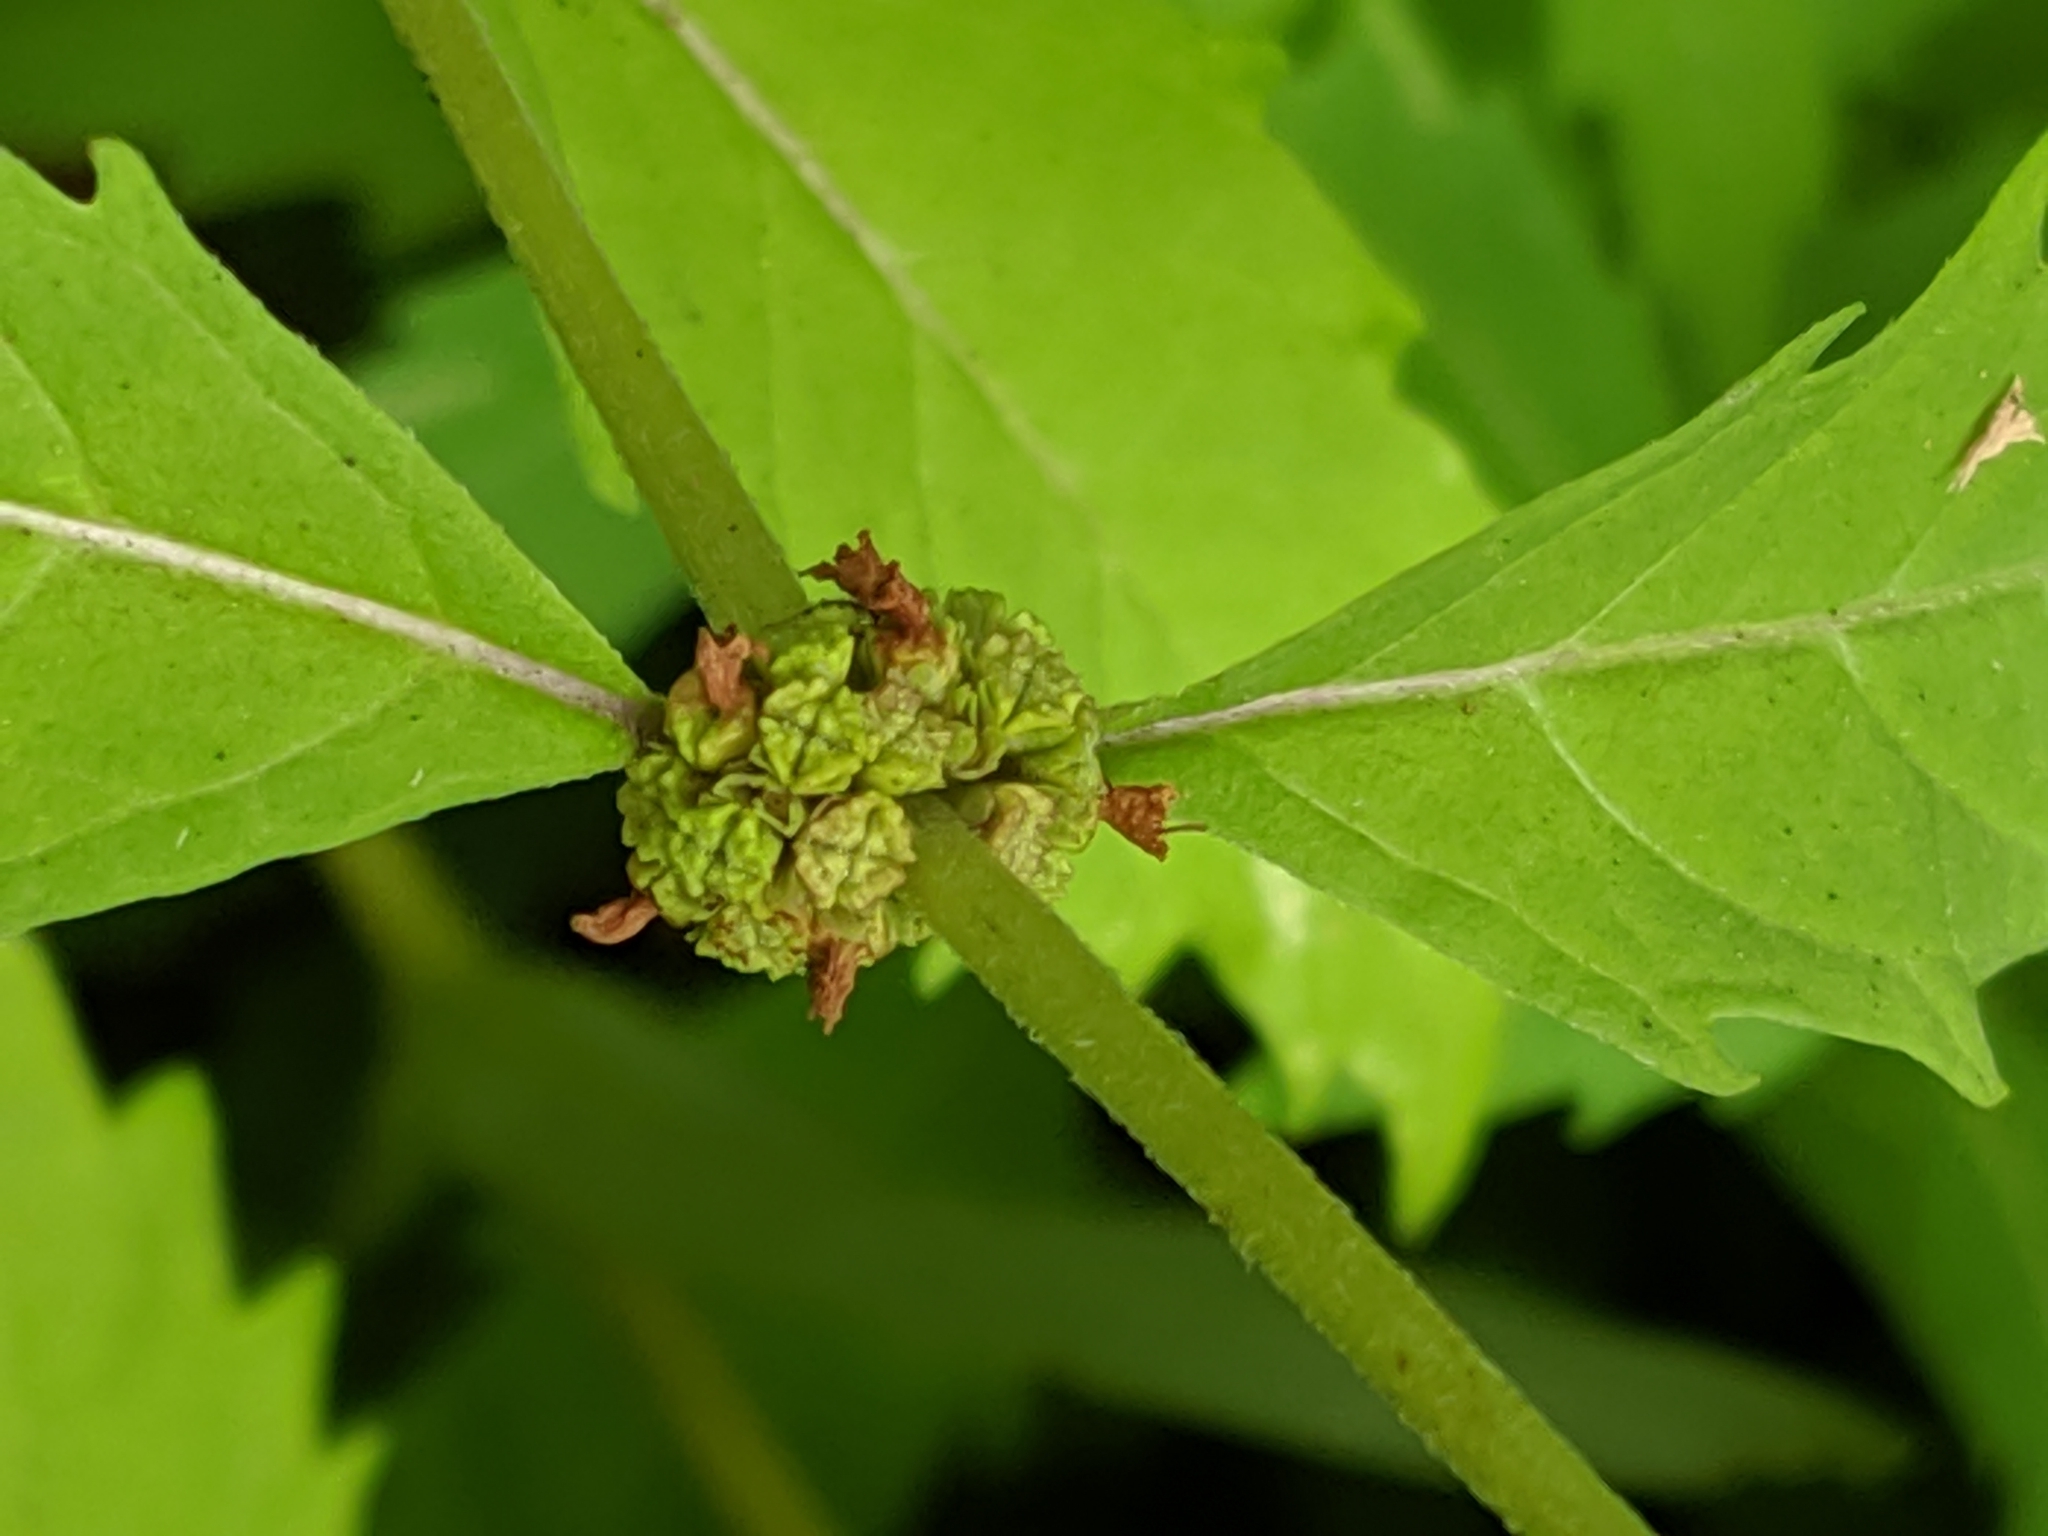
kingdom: Plantae
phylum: Tracheophyta
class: Magnoliopsida
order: Lamiales
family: Lamiaceae
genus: Lycopus
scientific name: Lycopus uniflorus
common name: Northern bugleweed
